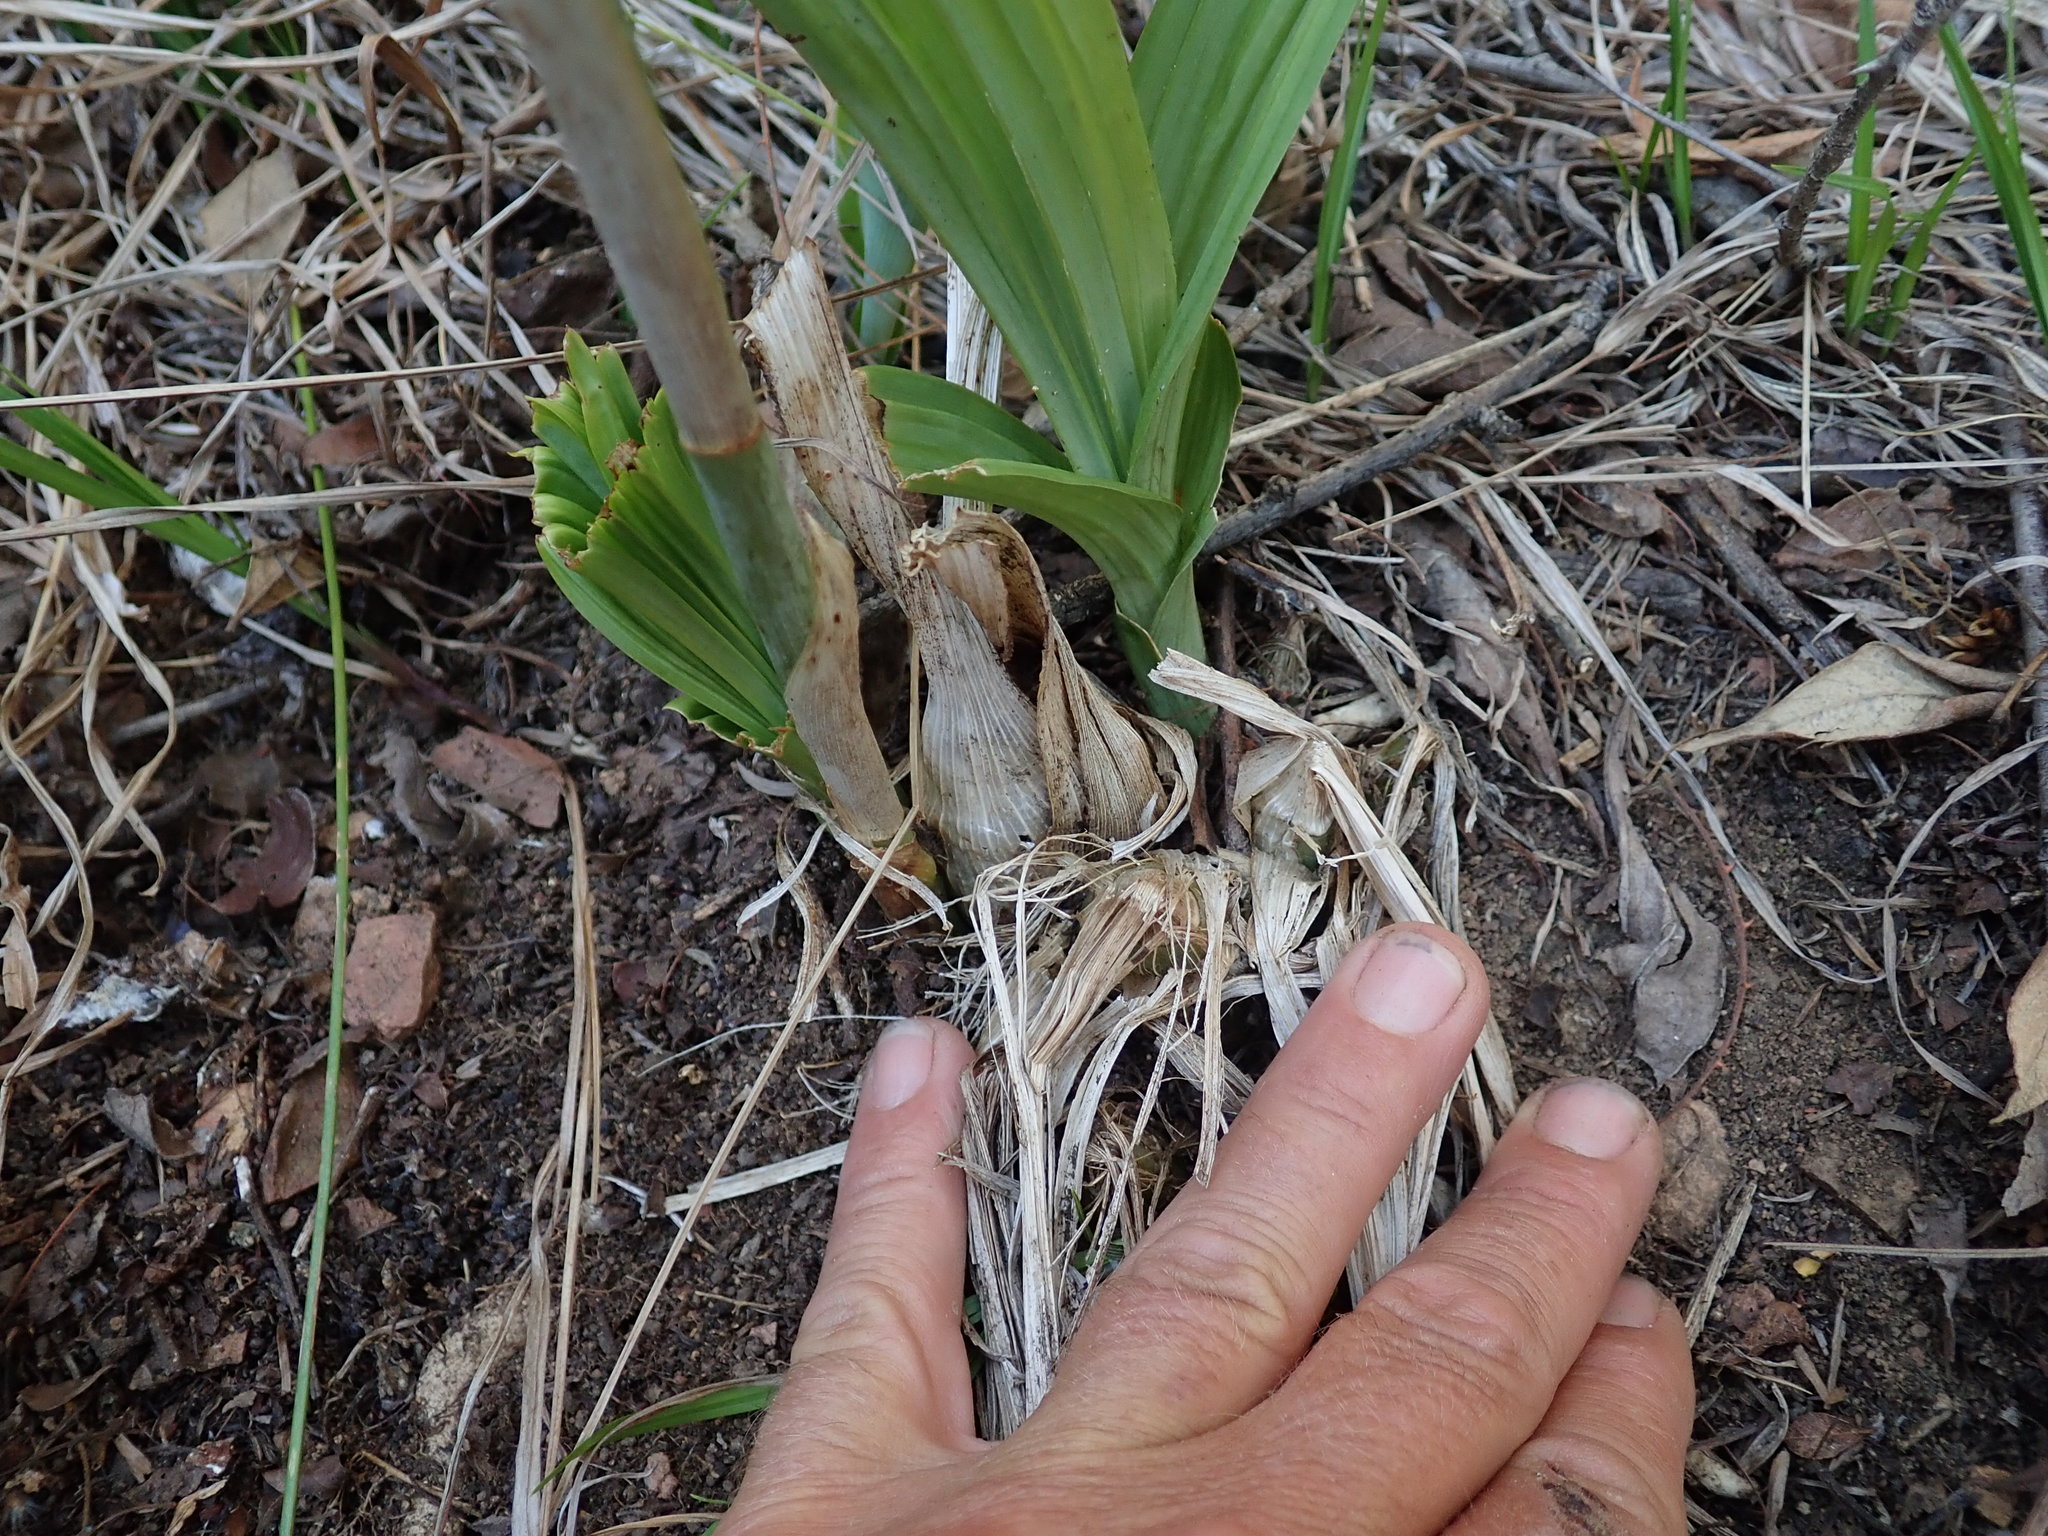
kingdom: Plantae
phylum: Tracheophyta
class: Liliopsida
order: Asparagales
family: Orchidaceae
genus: Eulophia
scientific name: Eulophia streptopetala
